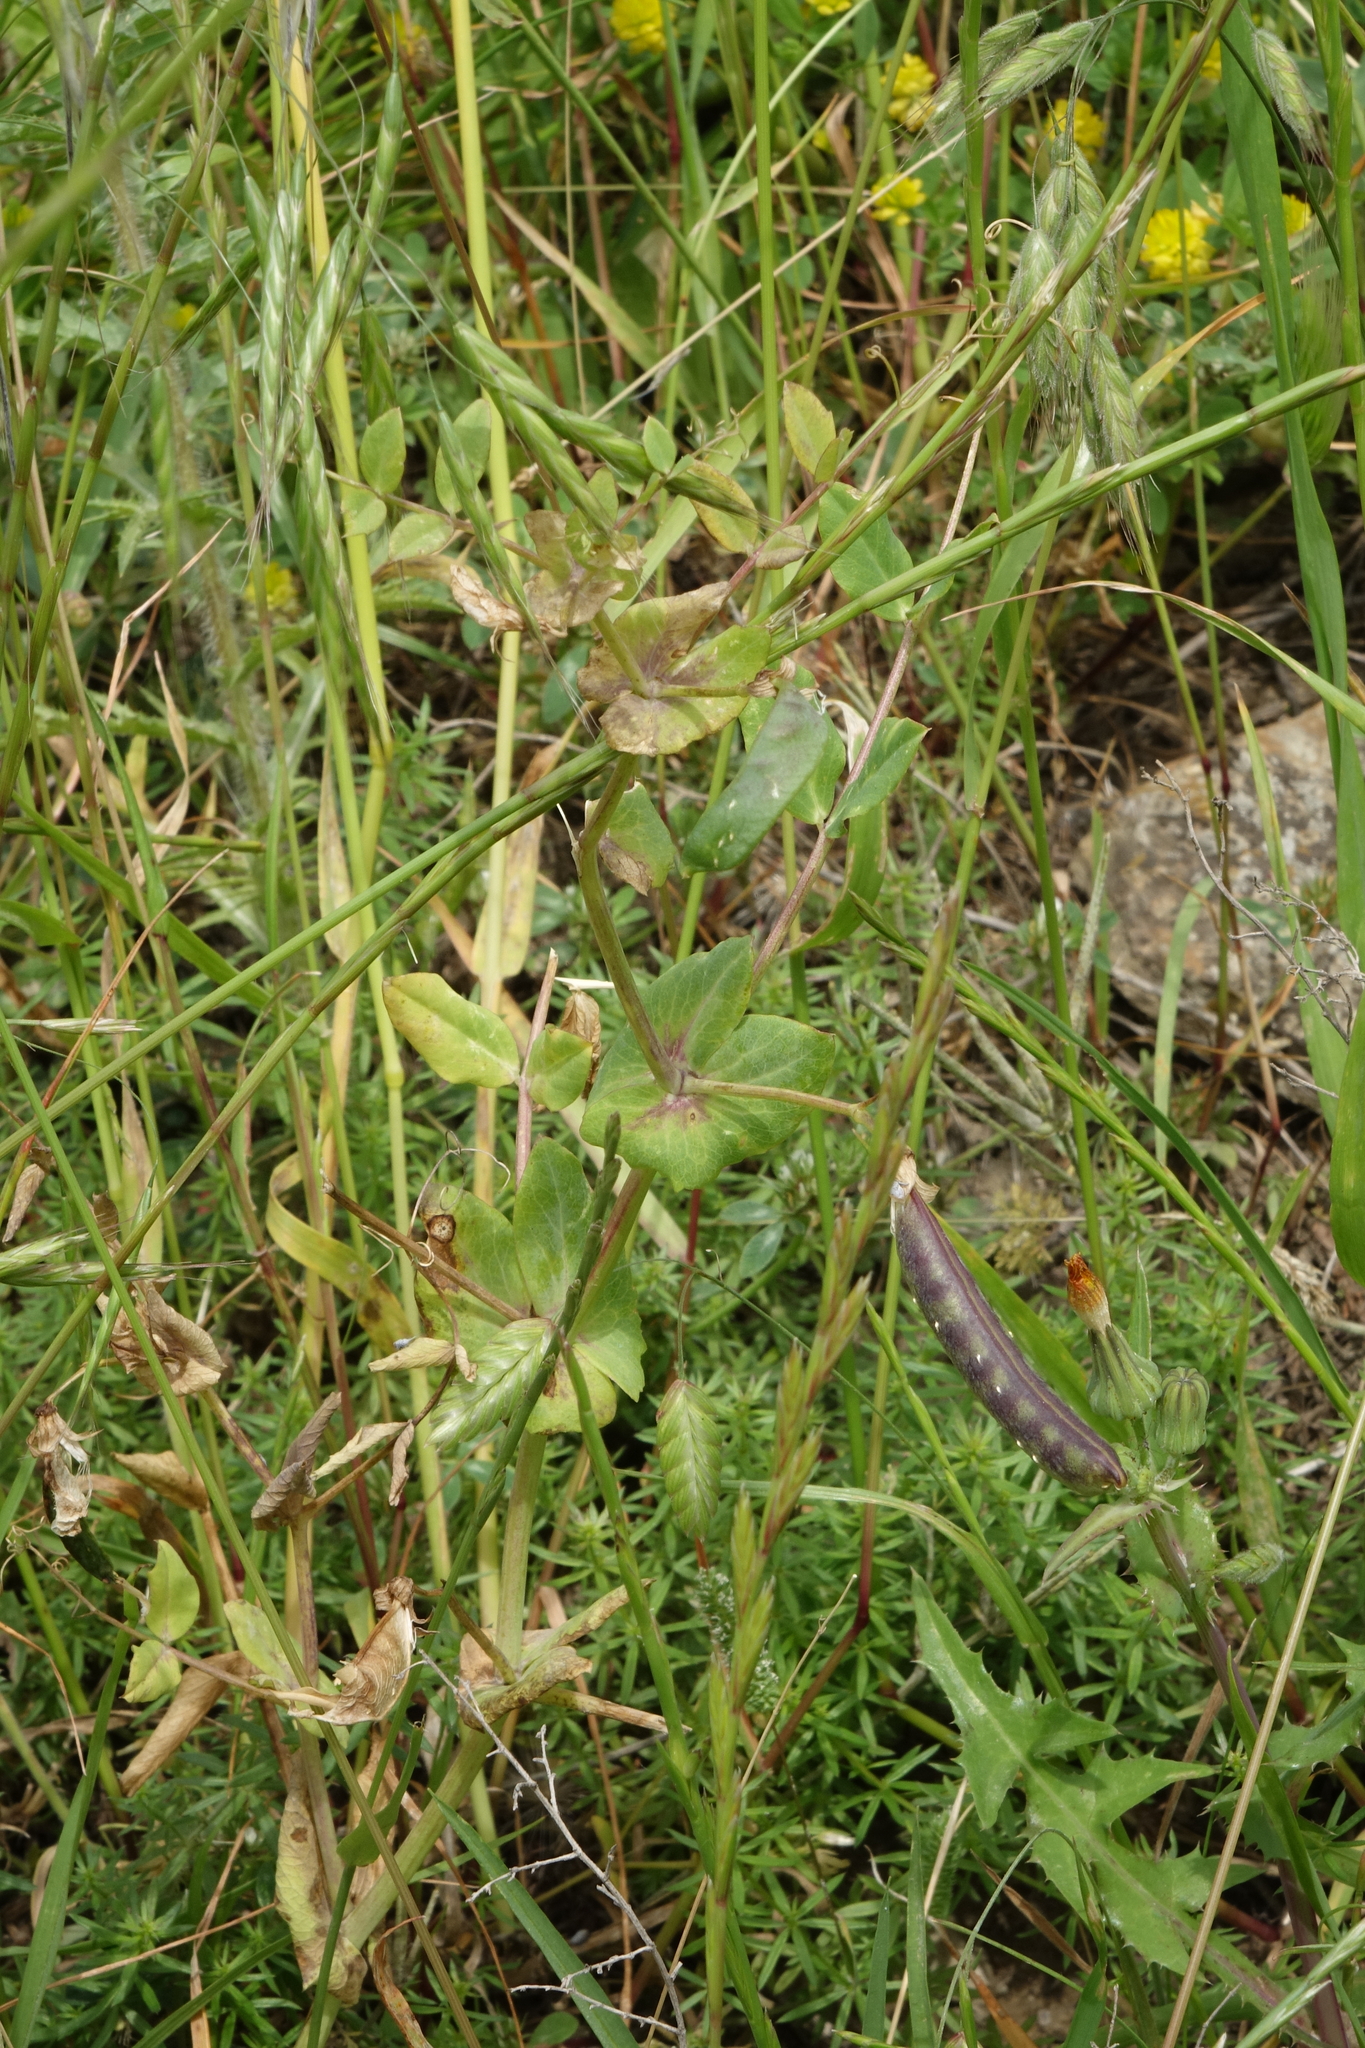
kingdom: Plantae
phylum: Tracheophyta
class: Magnoliopsida
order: Fabales
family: Fabaceae
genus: Lathyrus
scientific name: Lathyrus oleraceus
